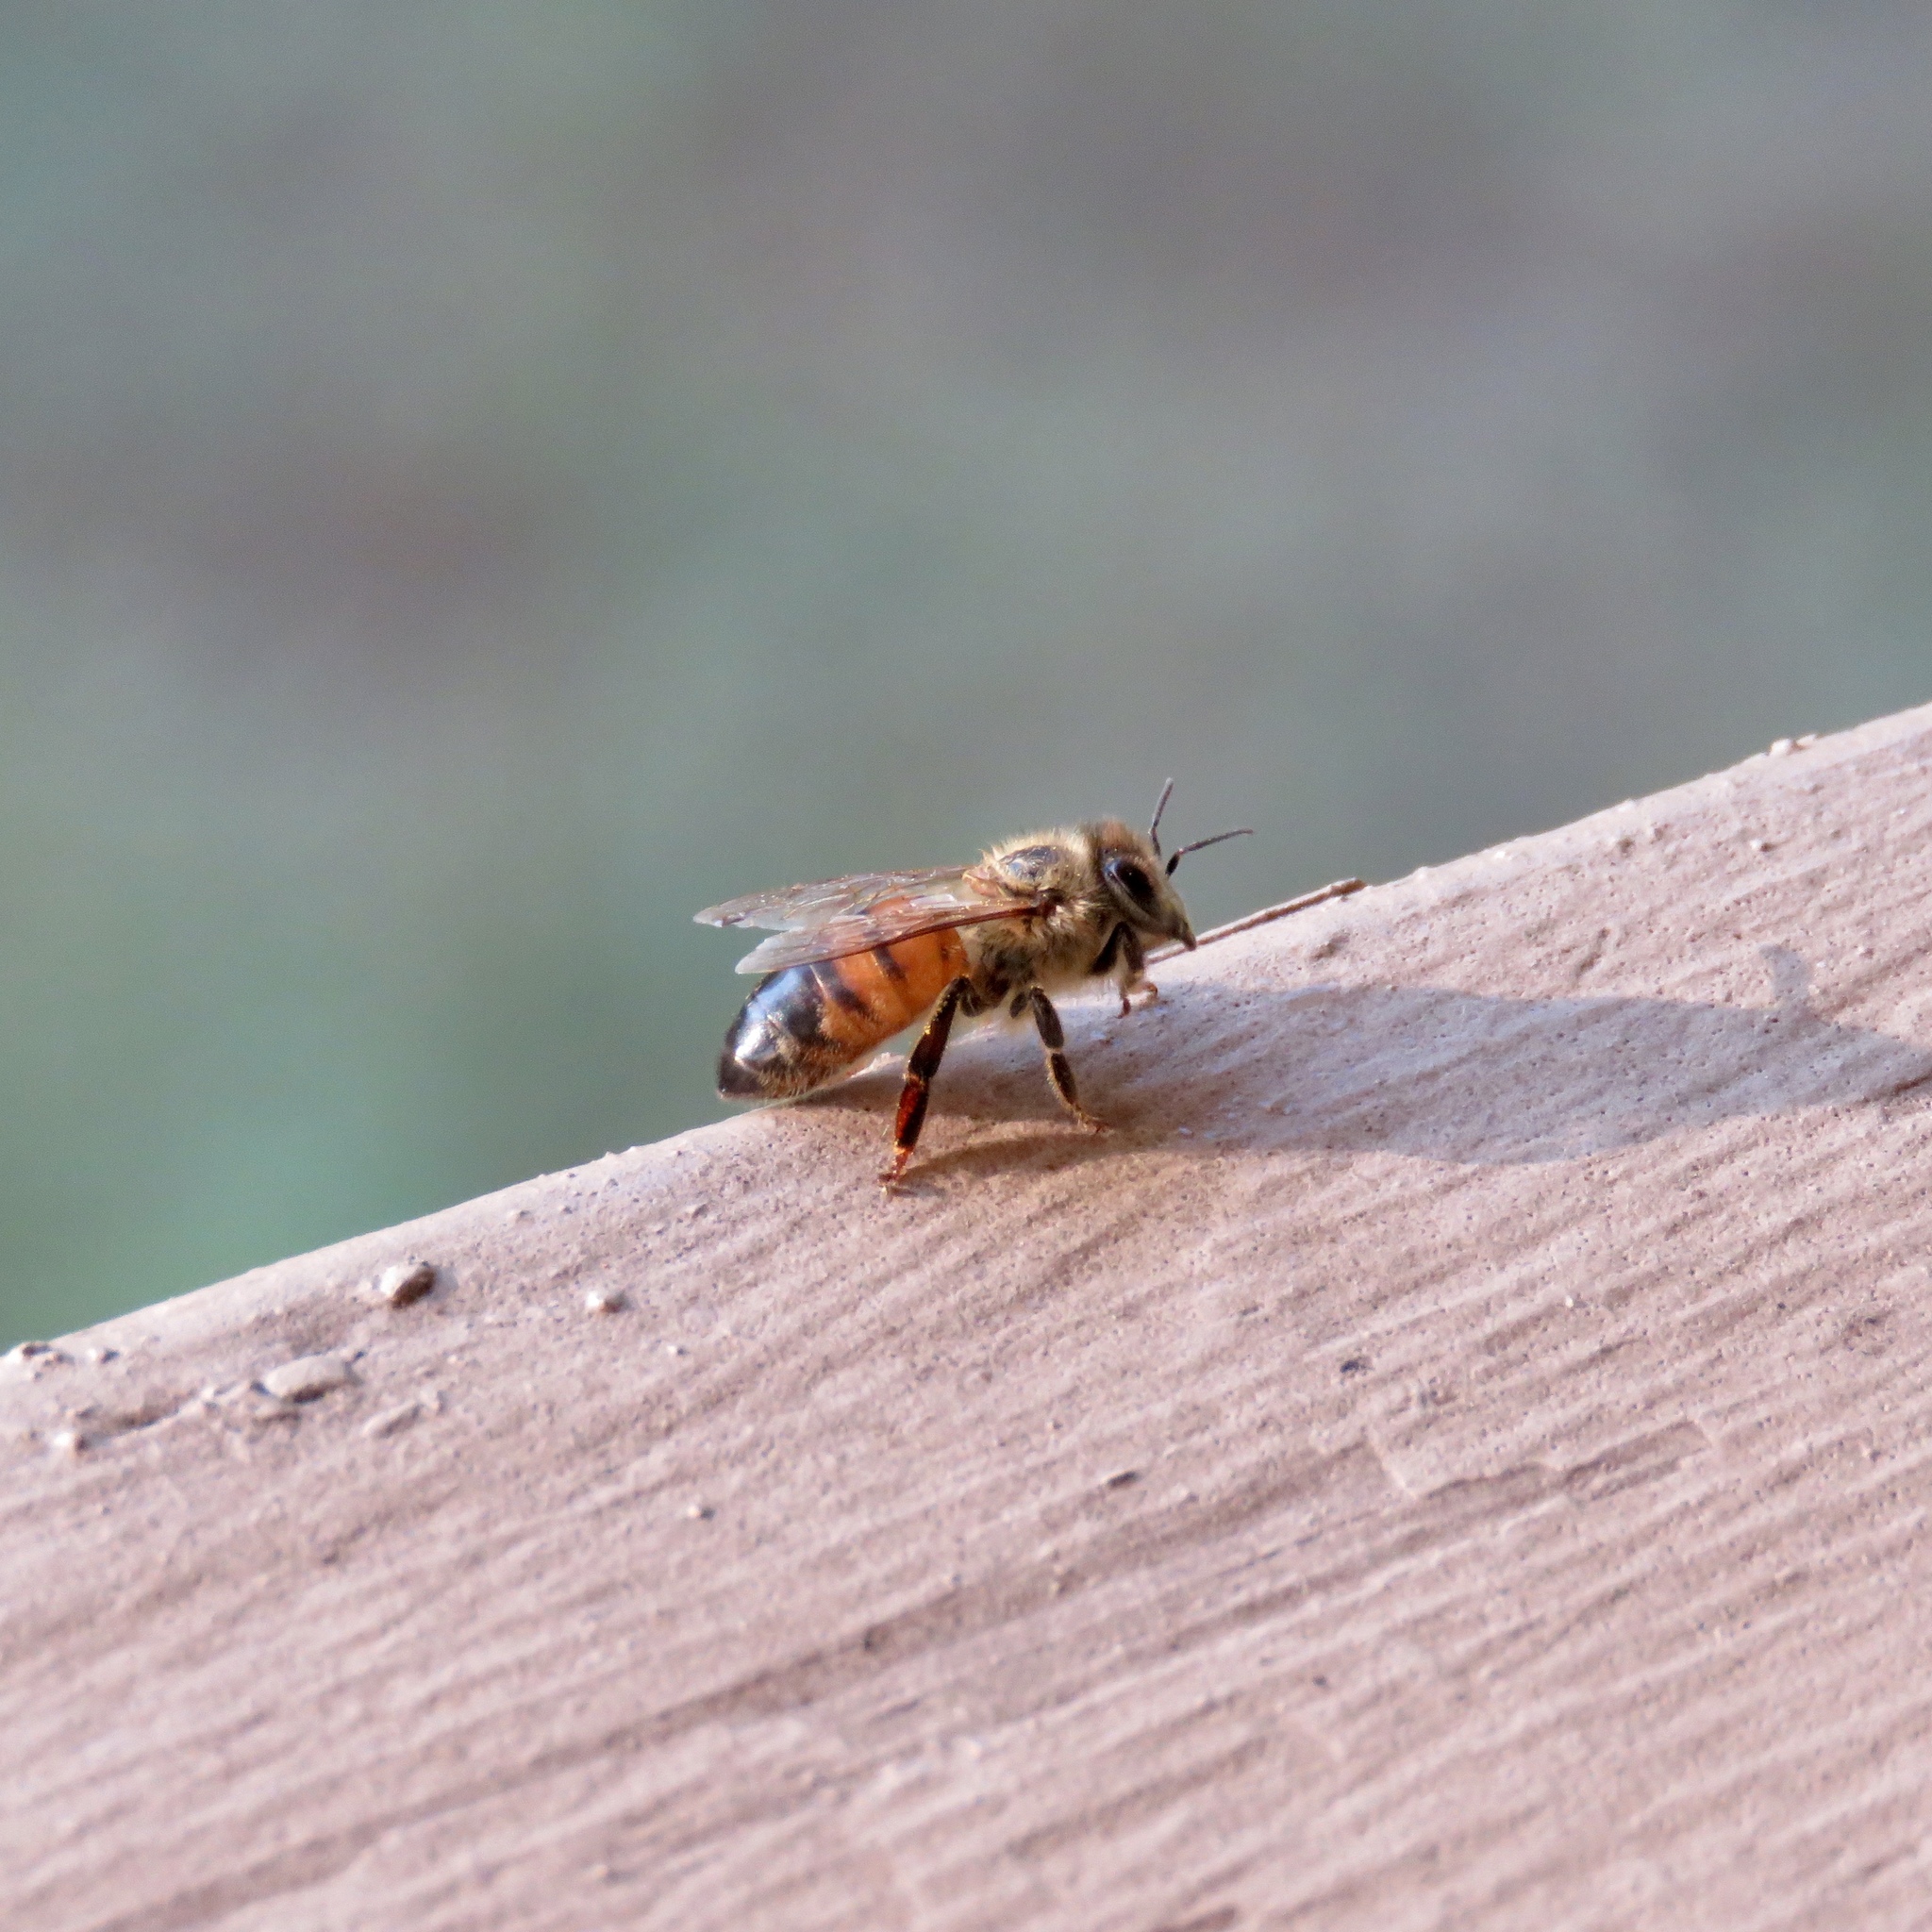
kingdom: Animalia
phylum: Arthropoda
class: Insecta
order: Hymenoptera
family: Apidae
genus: Apis
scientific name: Apis mellifera
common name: Honey bee
